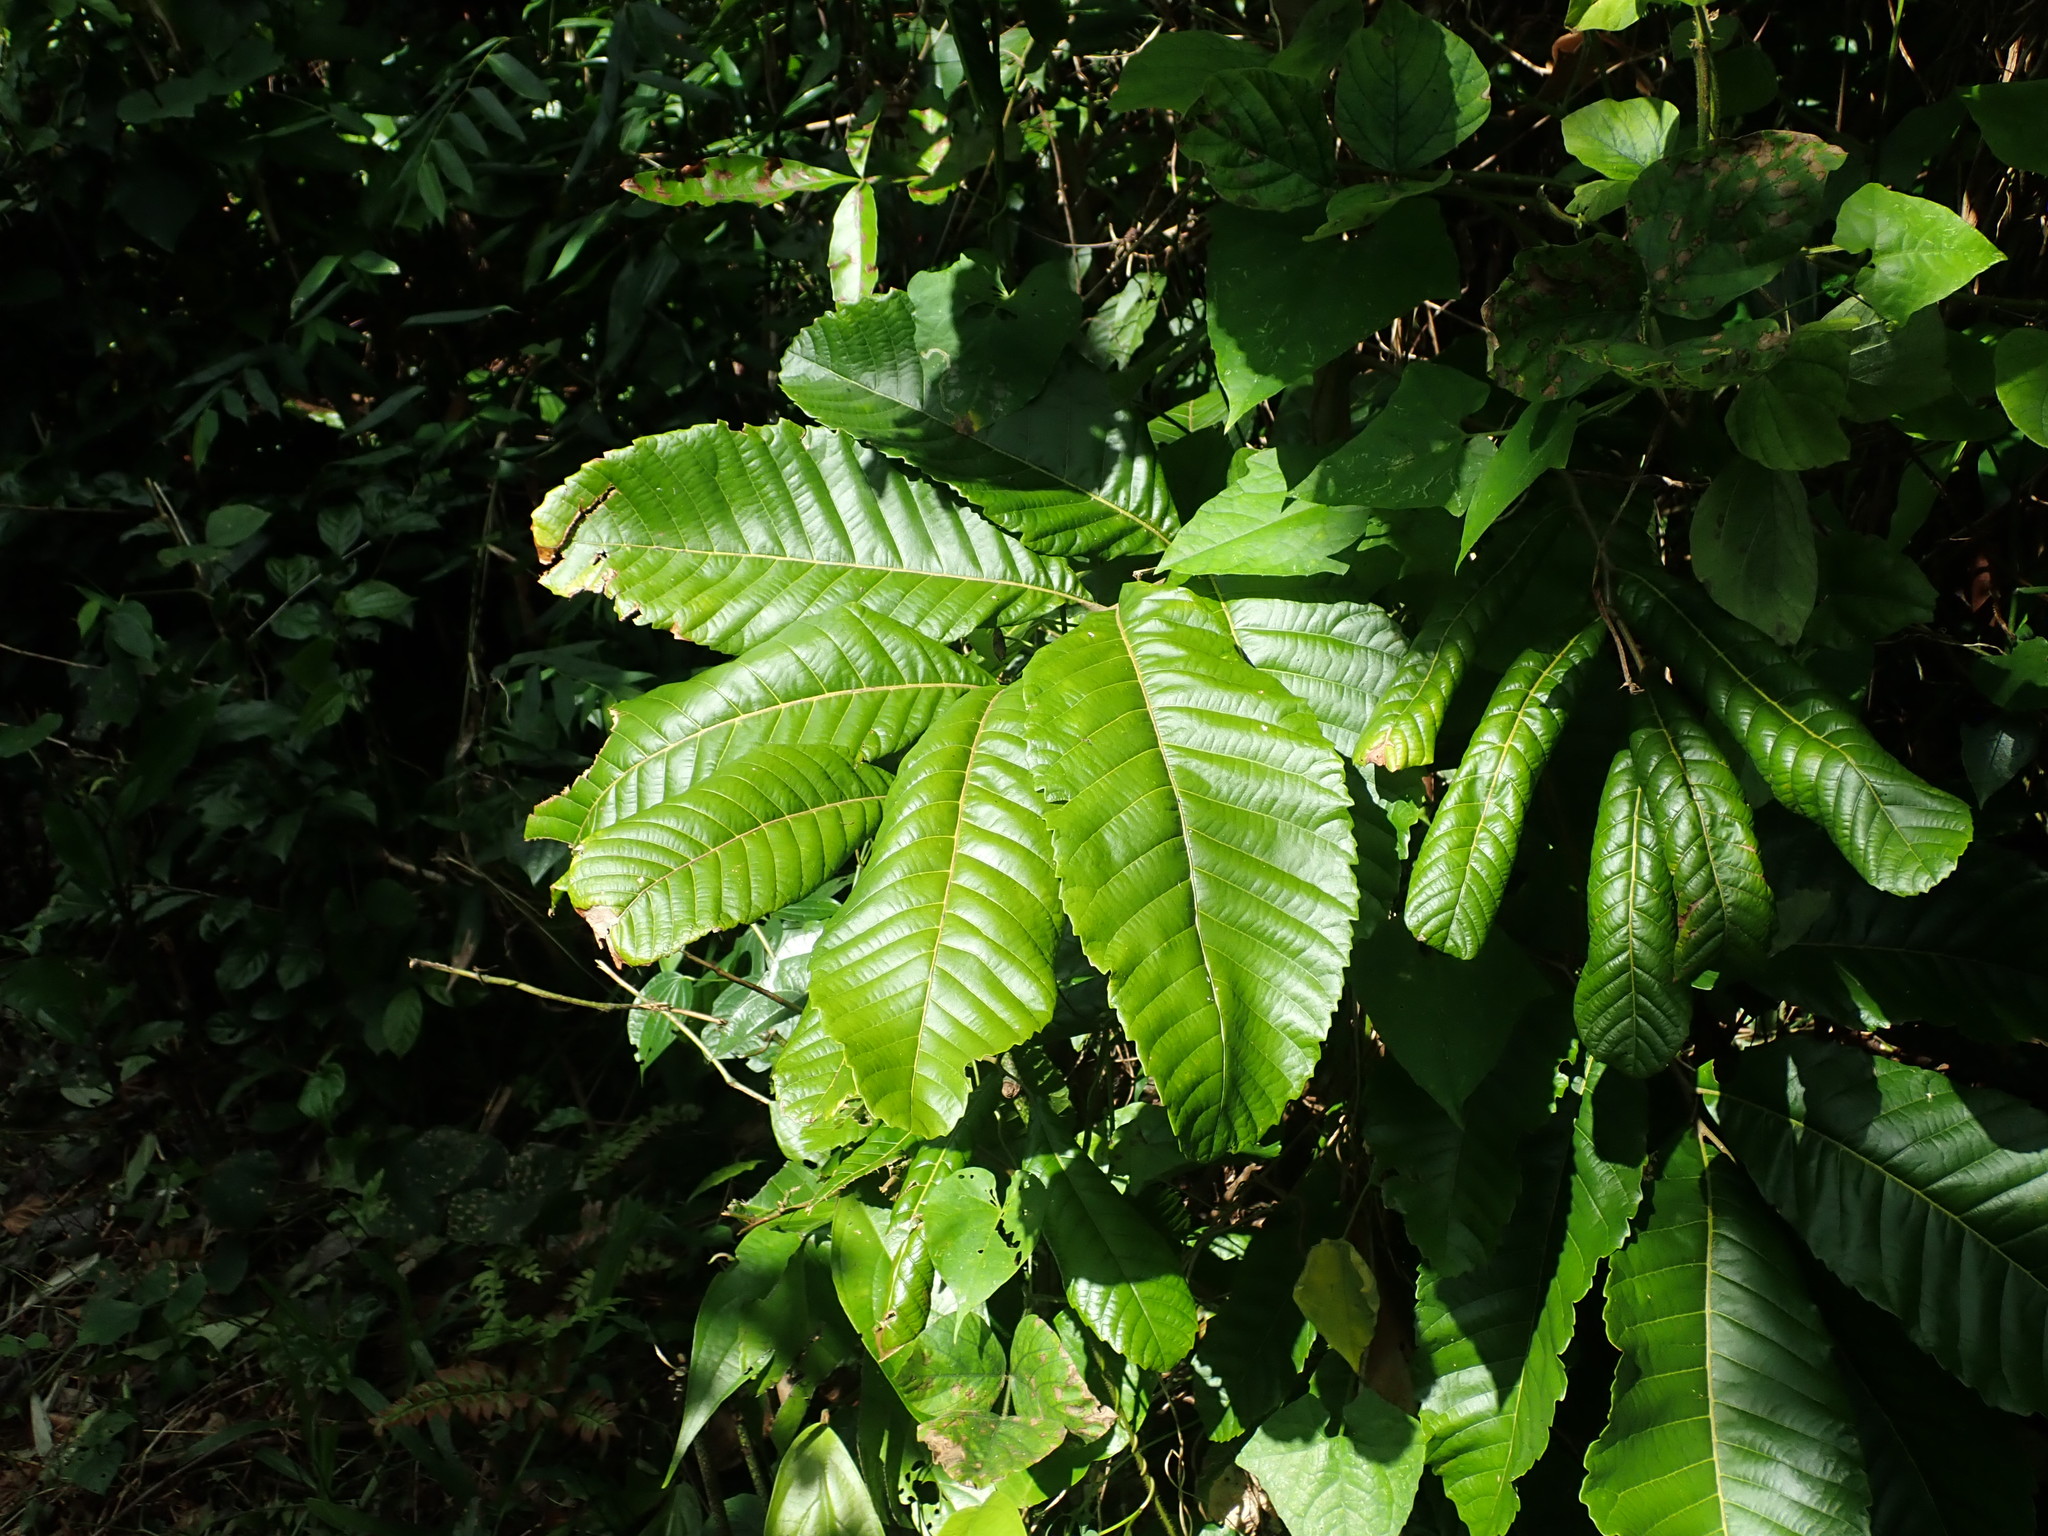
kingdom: Plantae
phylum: Tracheophyta
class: Magnoliopsida
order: Sapindales
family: Sapindaceae
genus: Cupania
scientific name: Cupania americana
